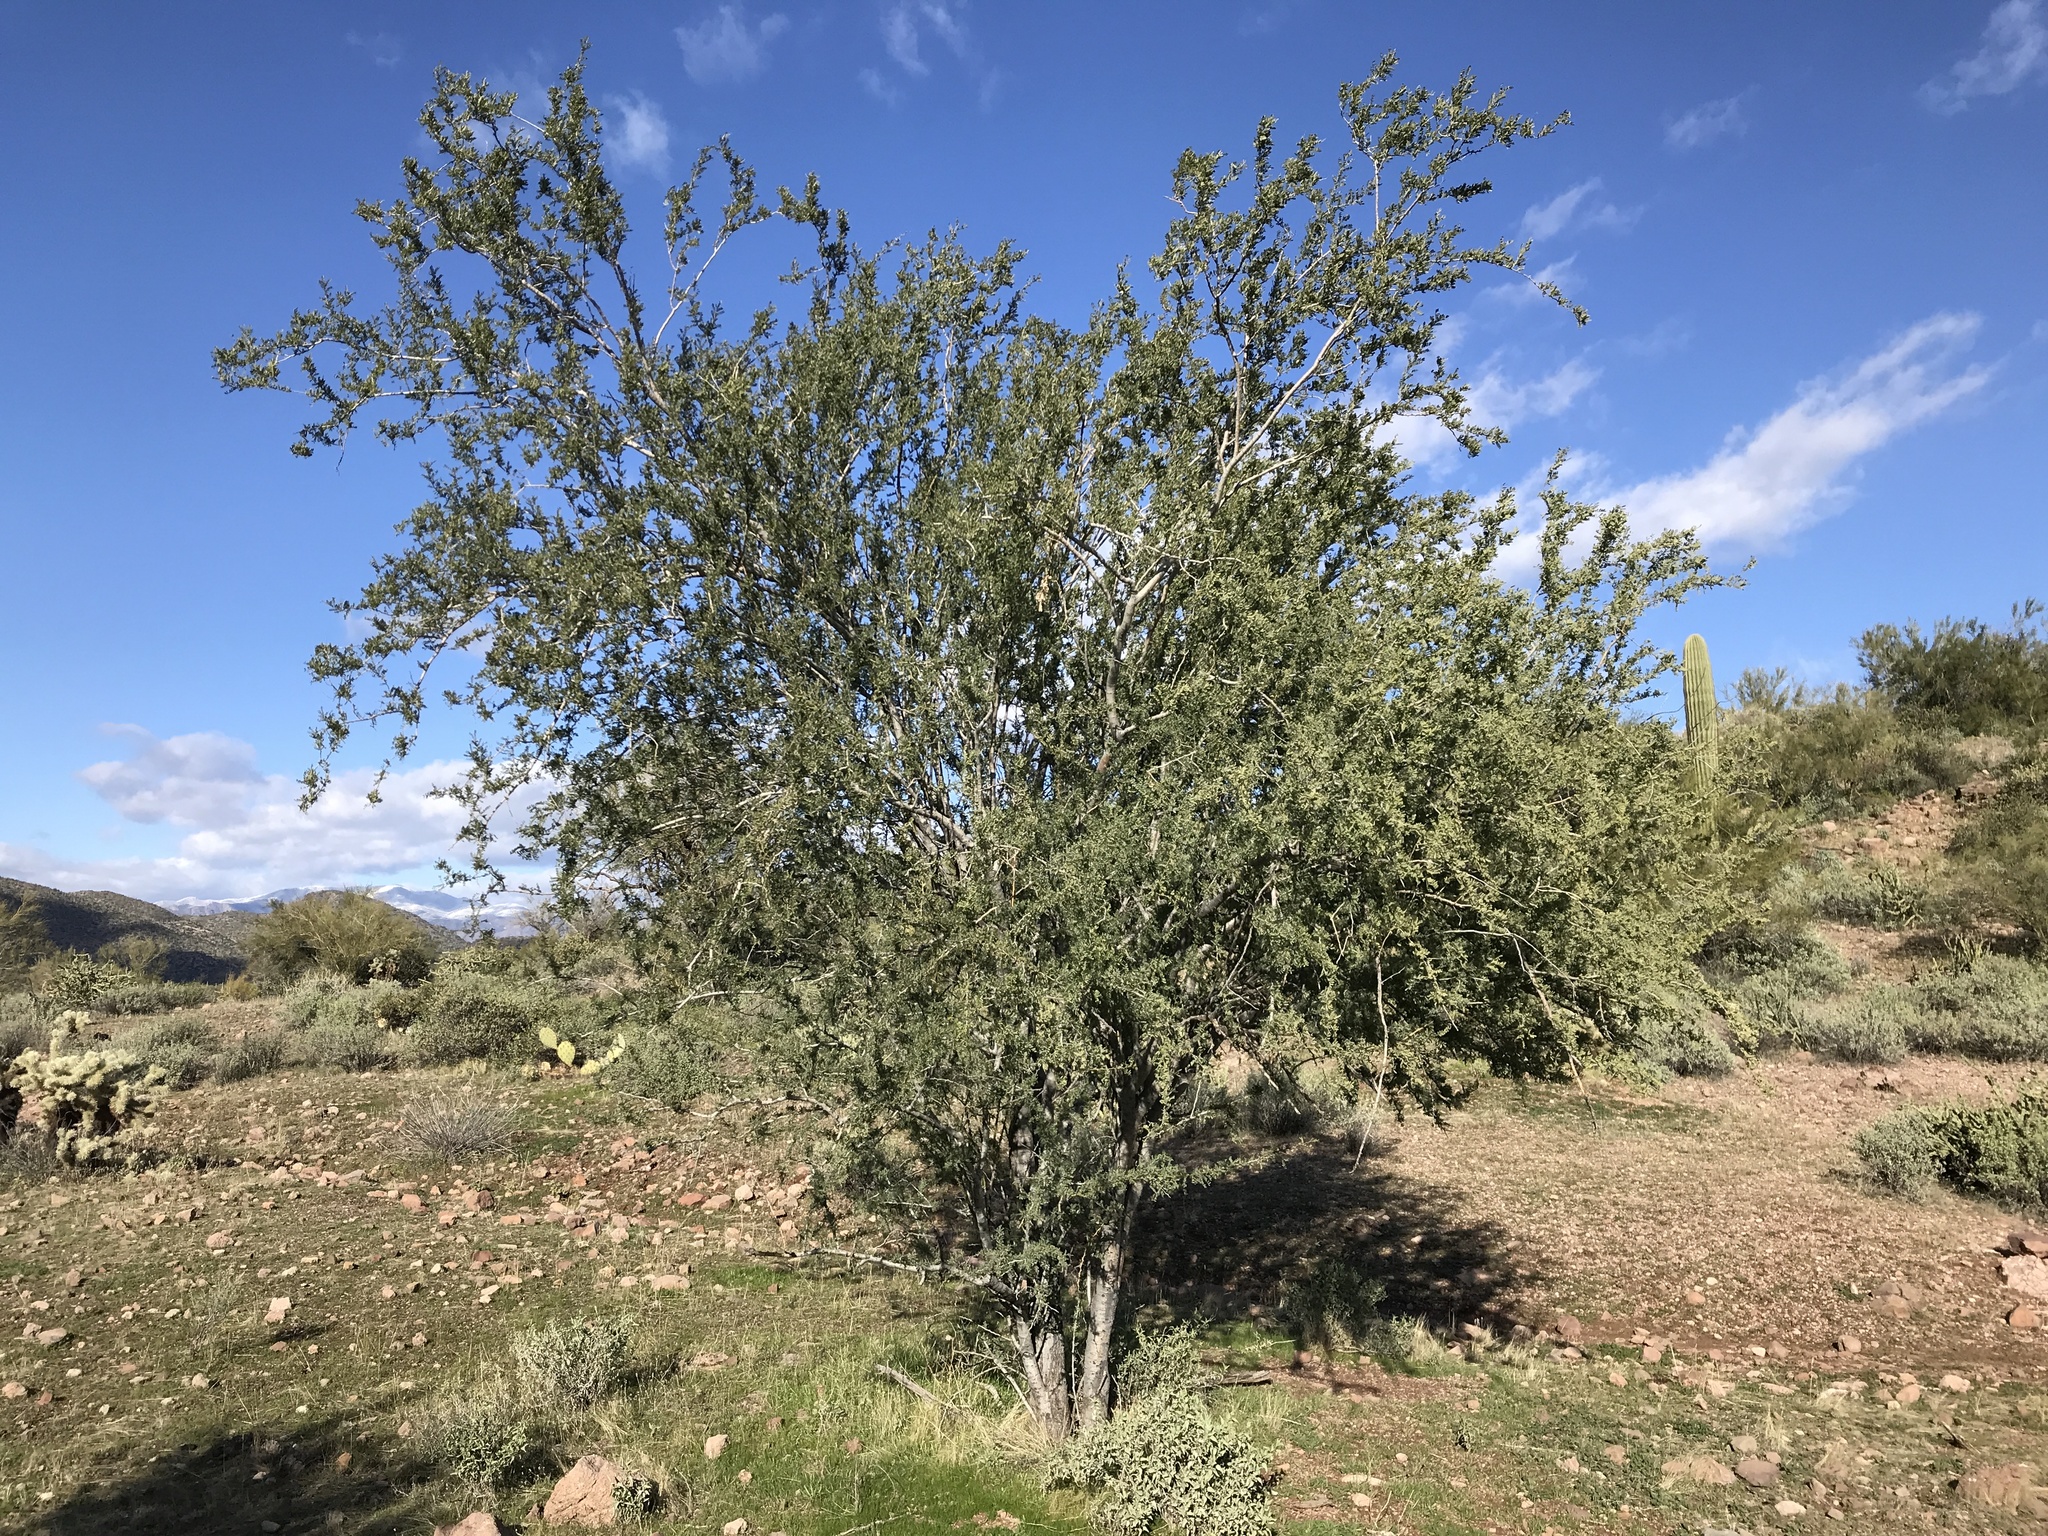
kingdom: Plantae
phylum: Tracheophyta
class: Magnoliopsida
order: Fabales
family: Fabaceae
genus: Olneya
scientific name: Olneya tesota
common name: Desert ironwood
